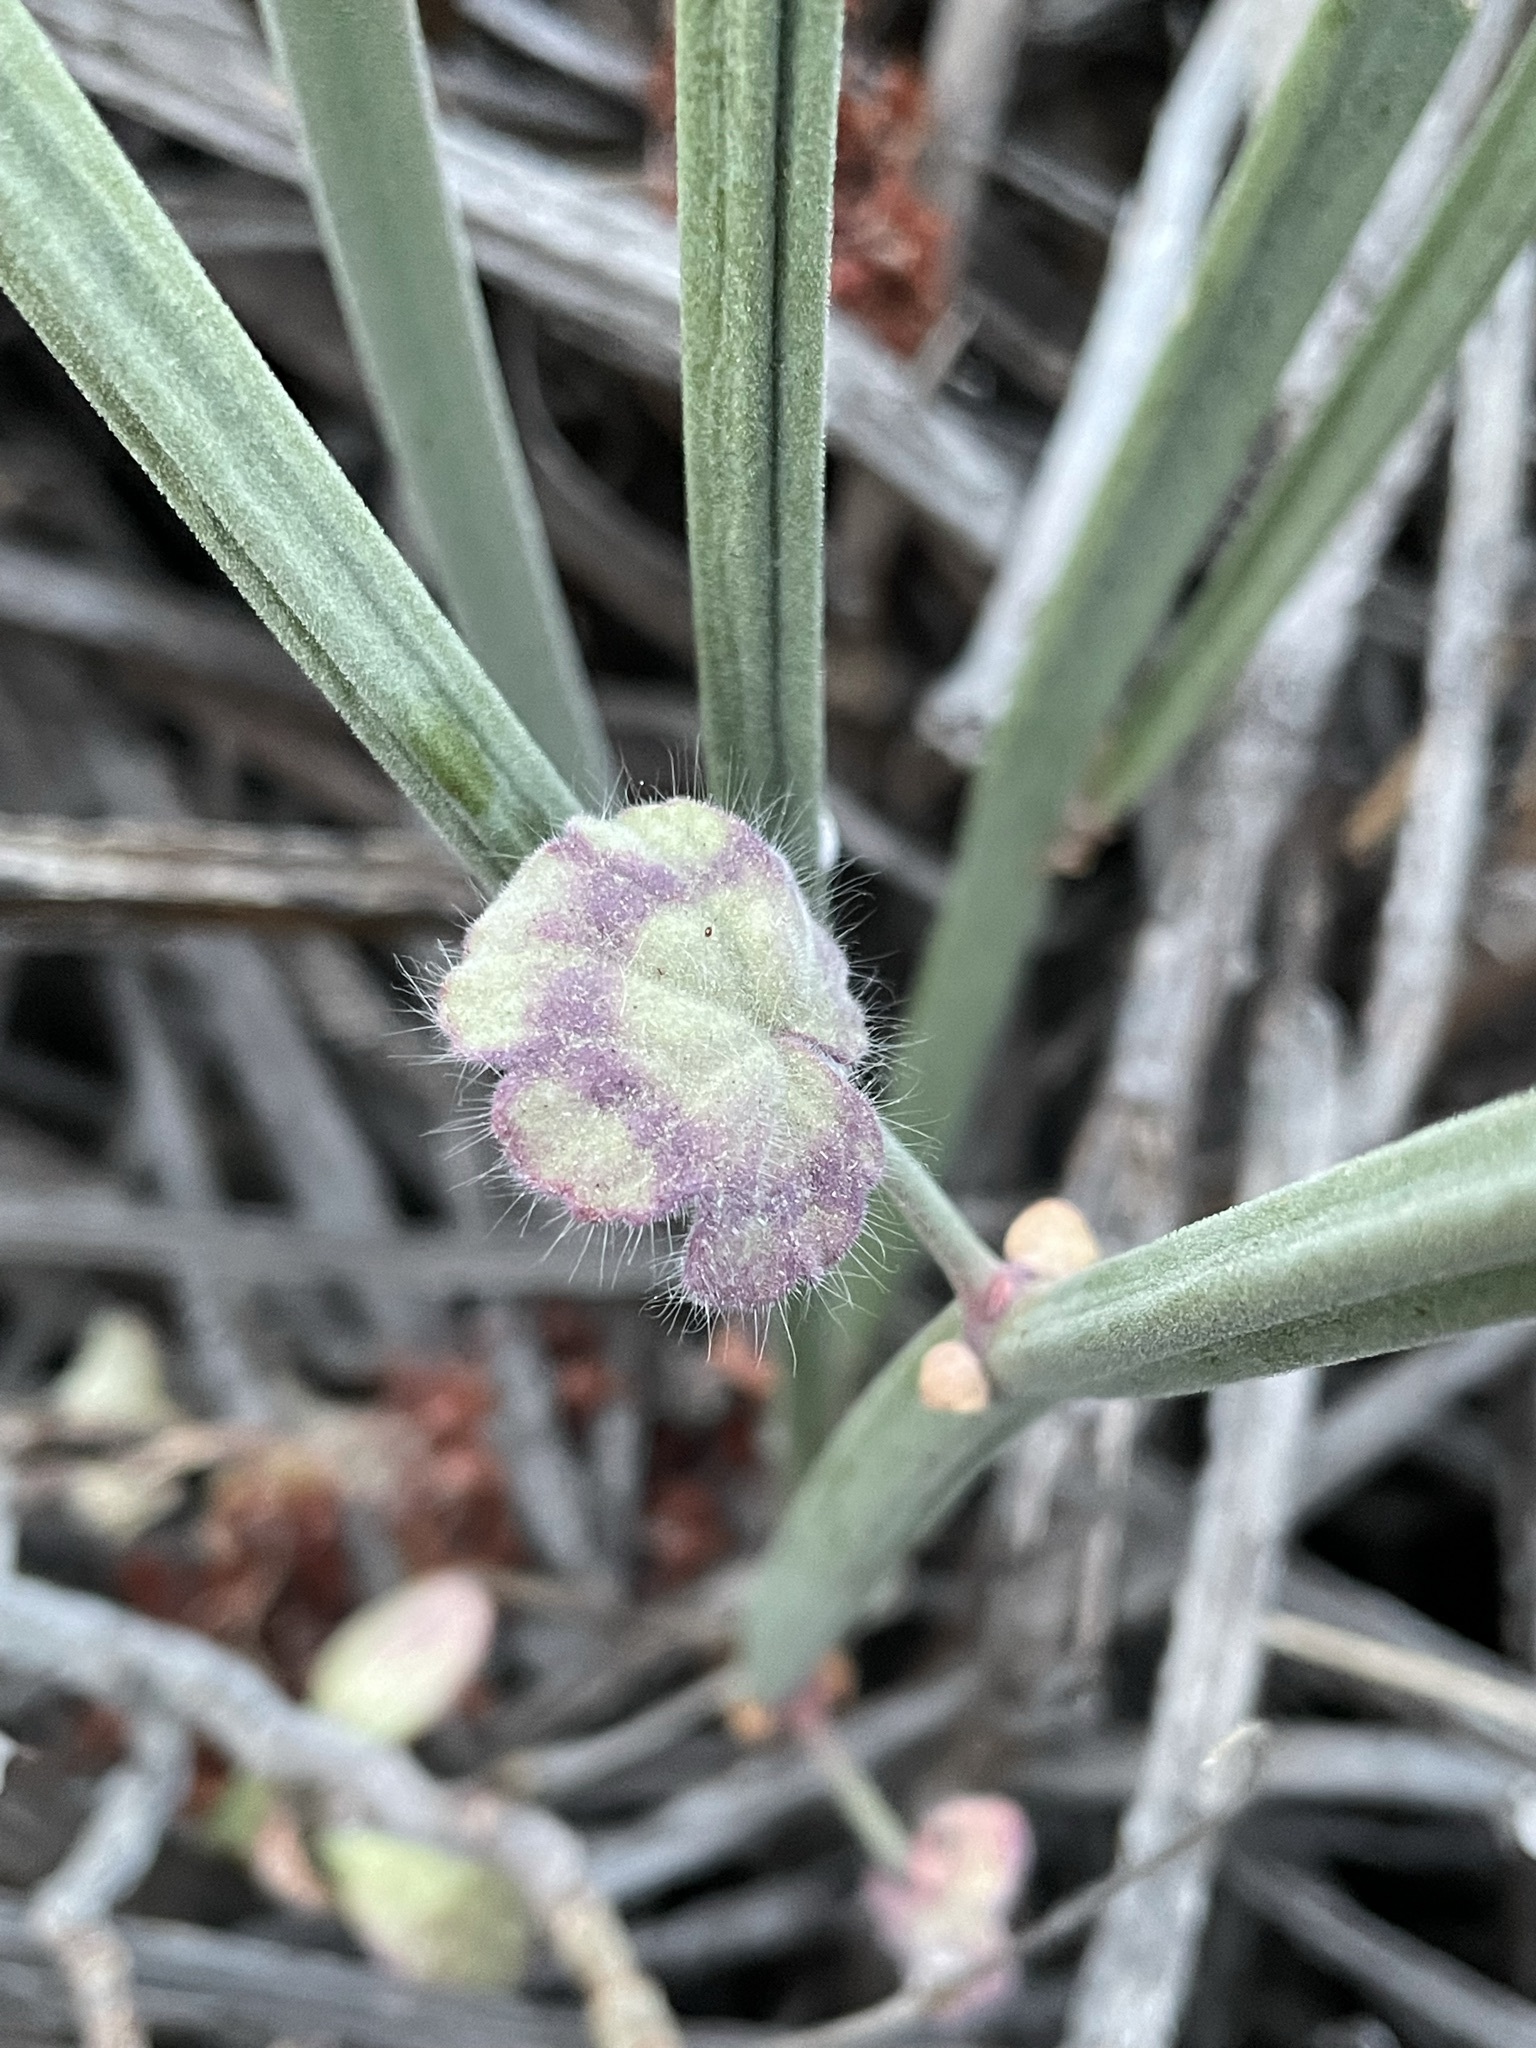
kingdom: Plantae
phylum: Tracheophyta
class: Magnoliopsida
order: Geraniales
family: Geraniaceae
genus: Pelargonium
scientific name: Pelargonium tetragonum
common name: Square-stack crane's-bill
